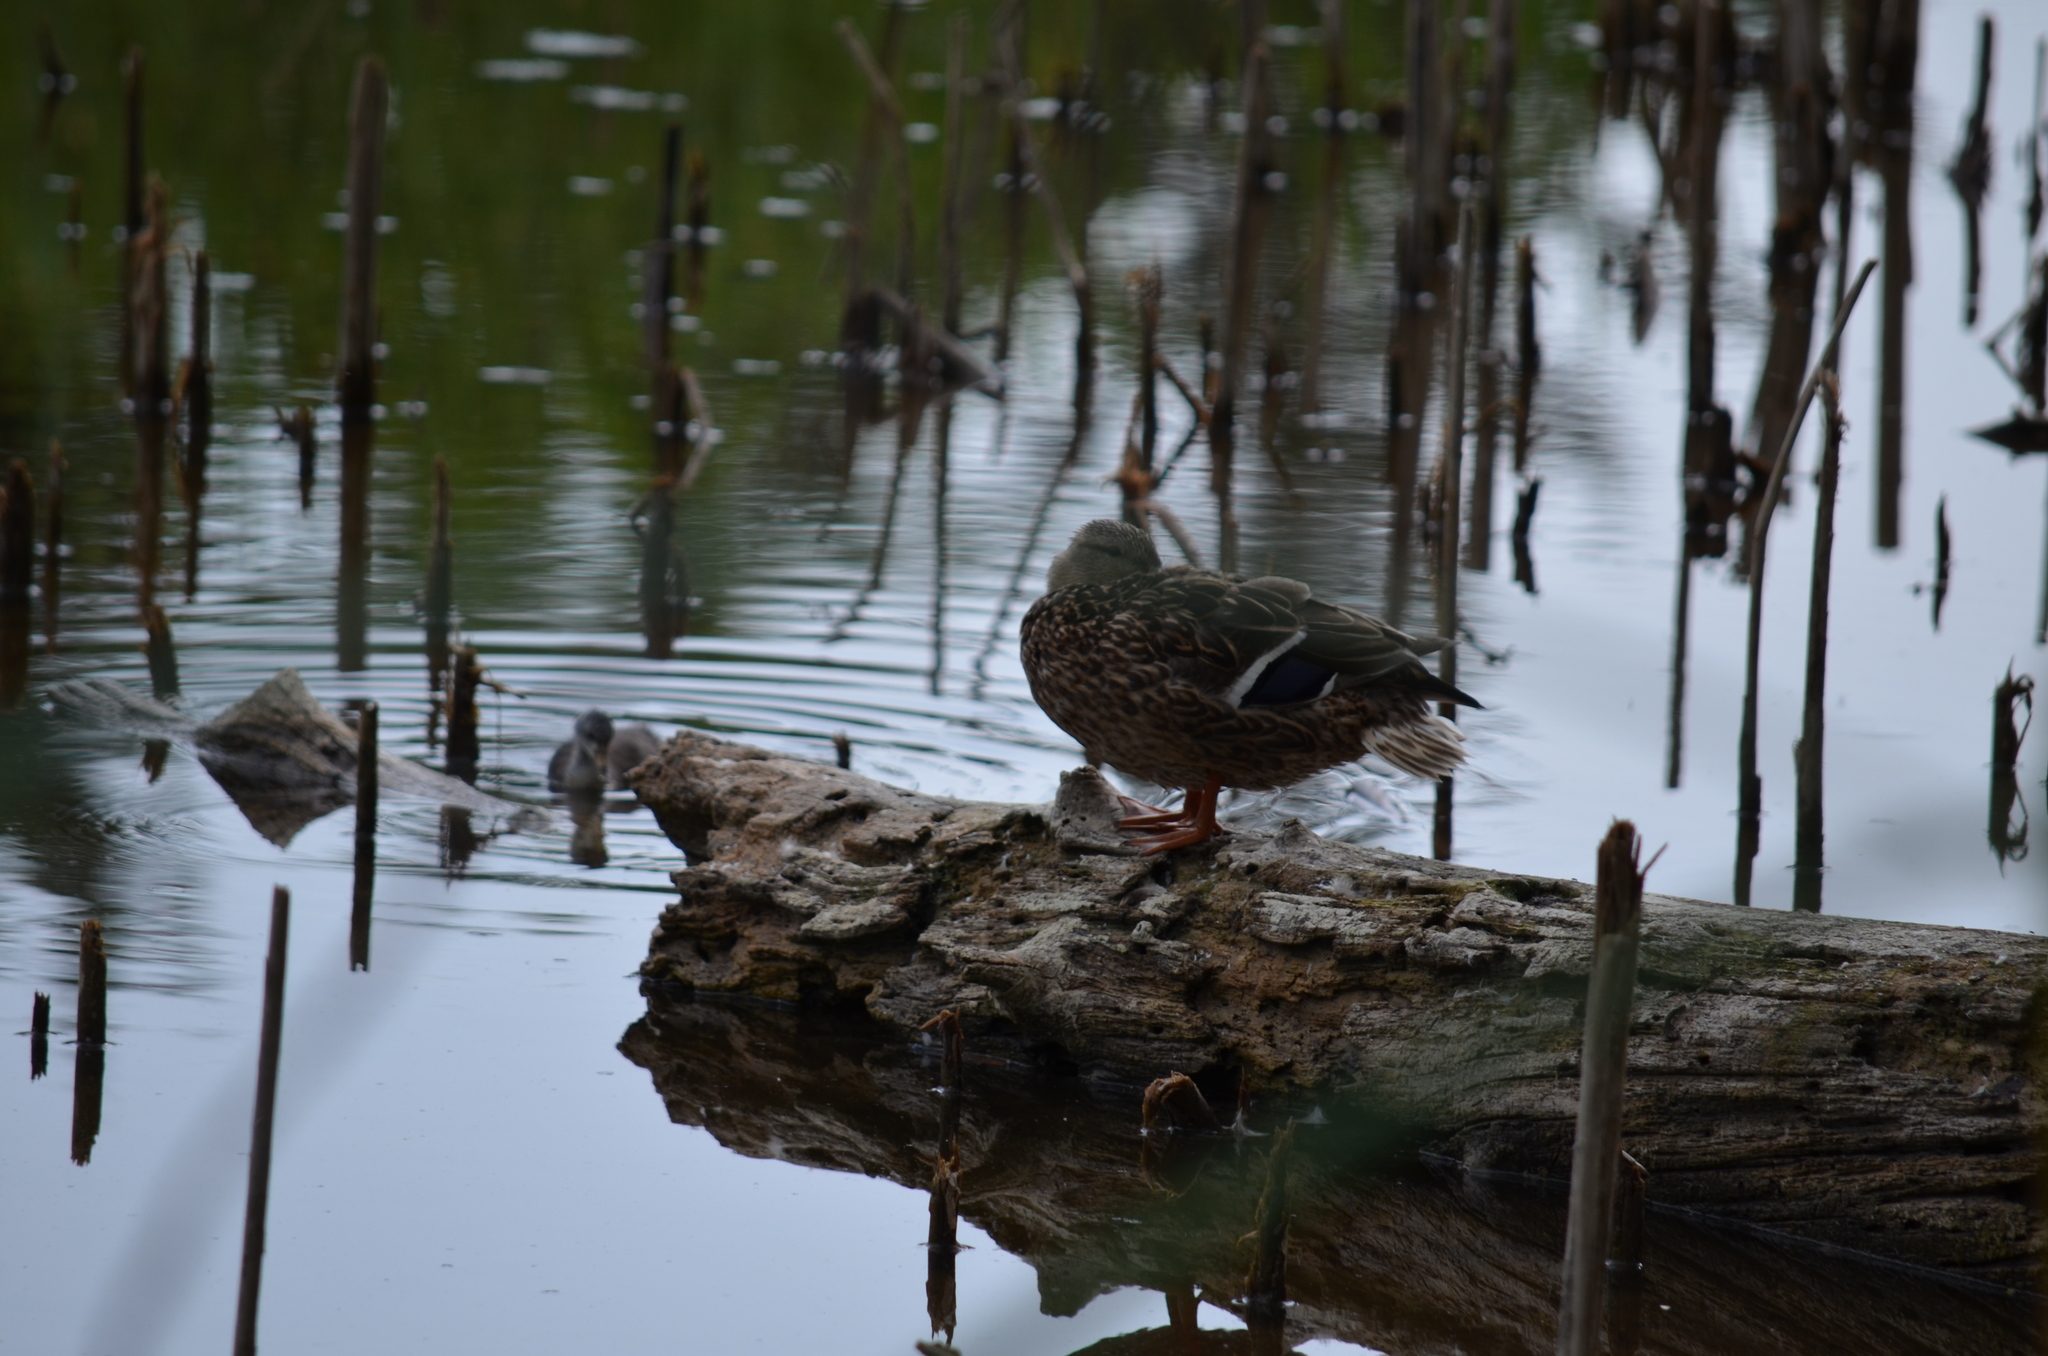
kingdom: Animalia
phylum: Chordata
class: Aves
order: Anseriformes
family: Anatidae
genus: Anas
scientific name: Anas platyrhynchos
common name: Mallard
